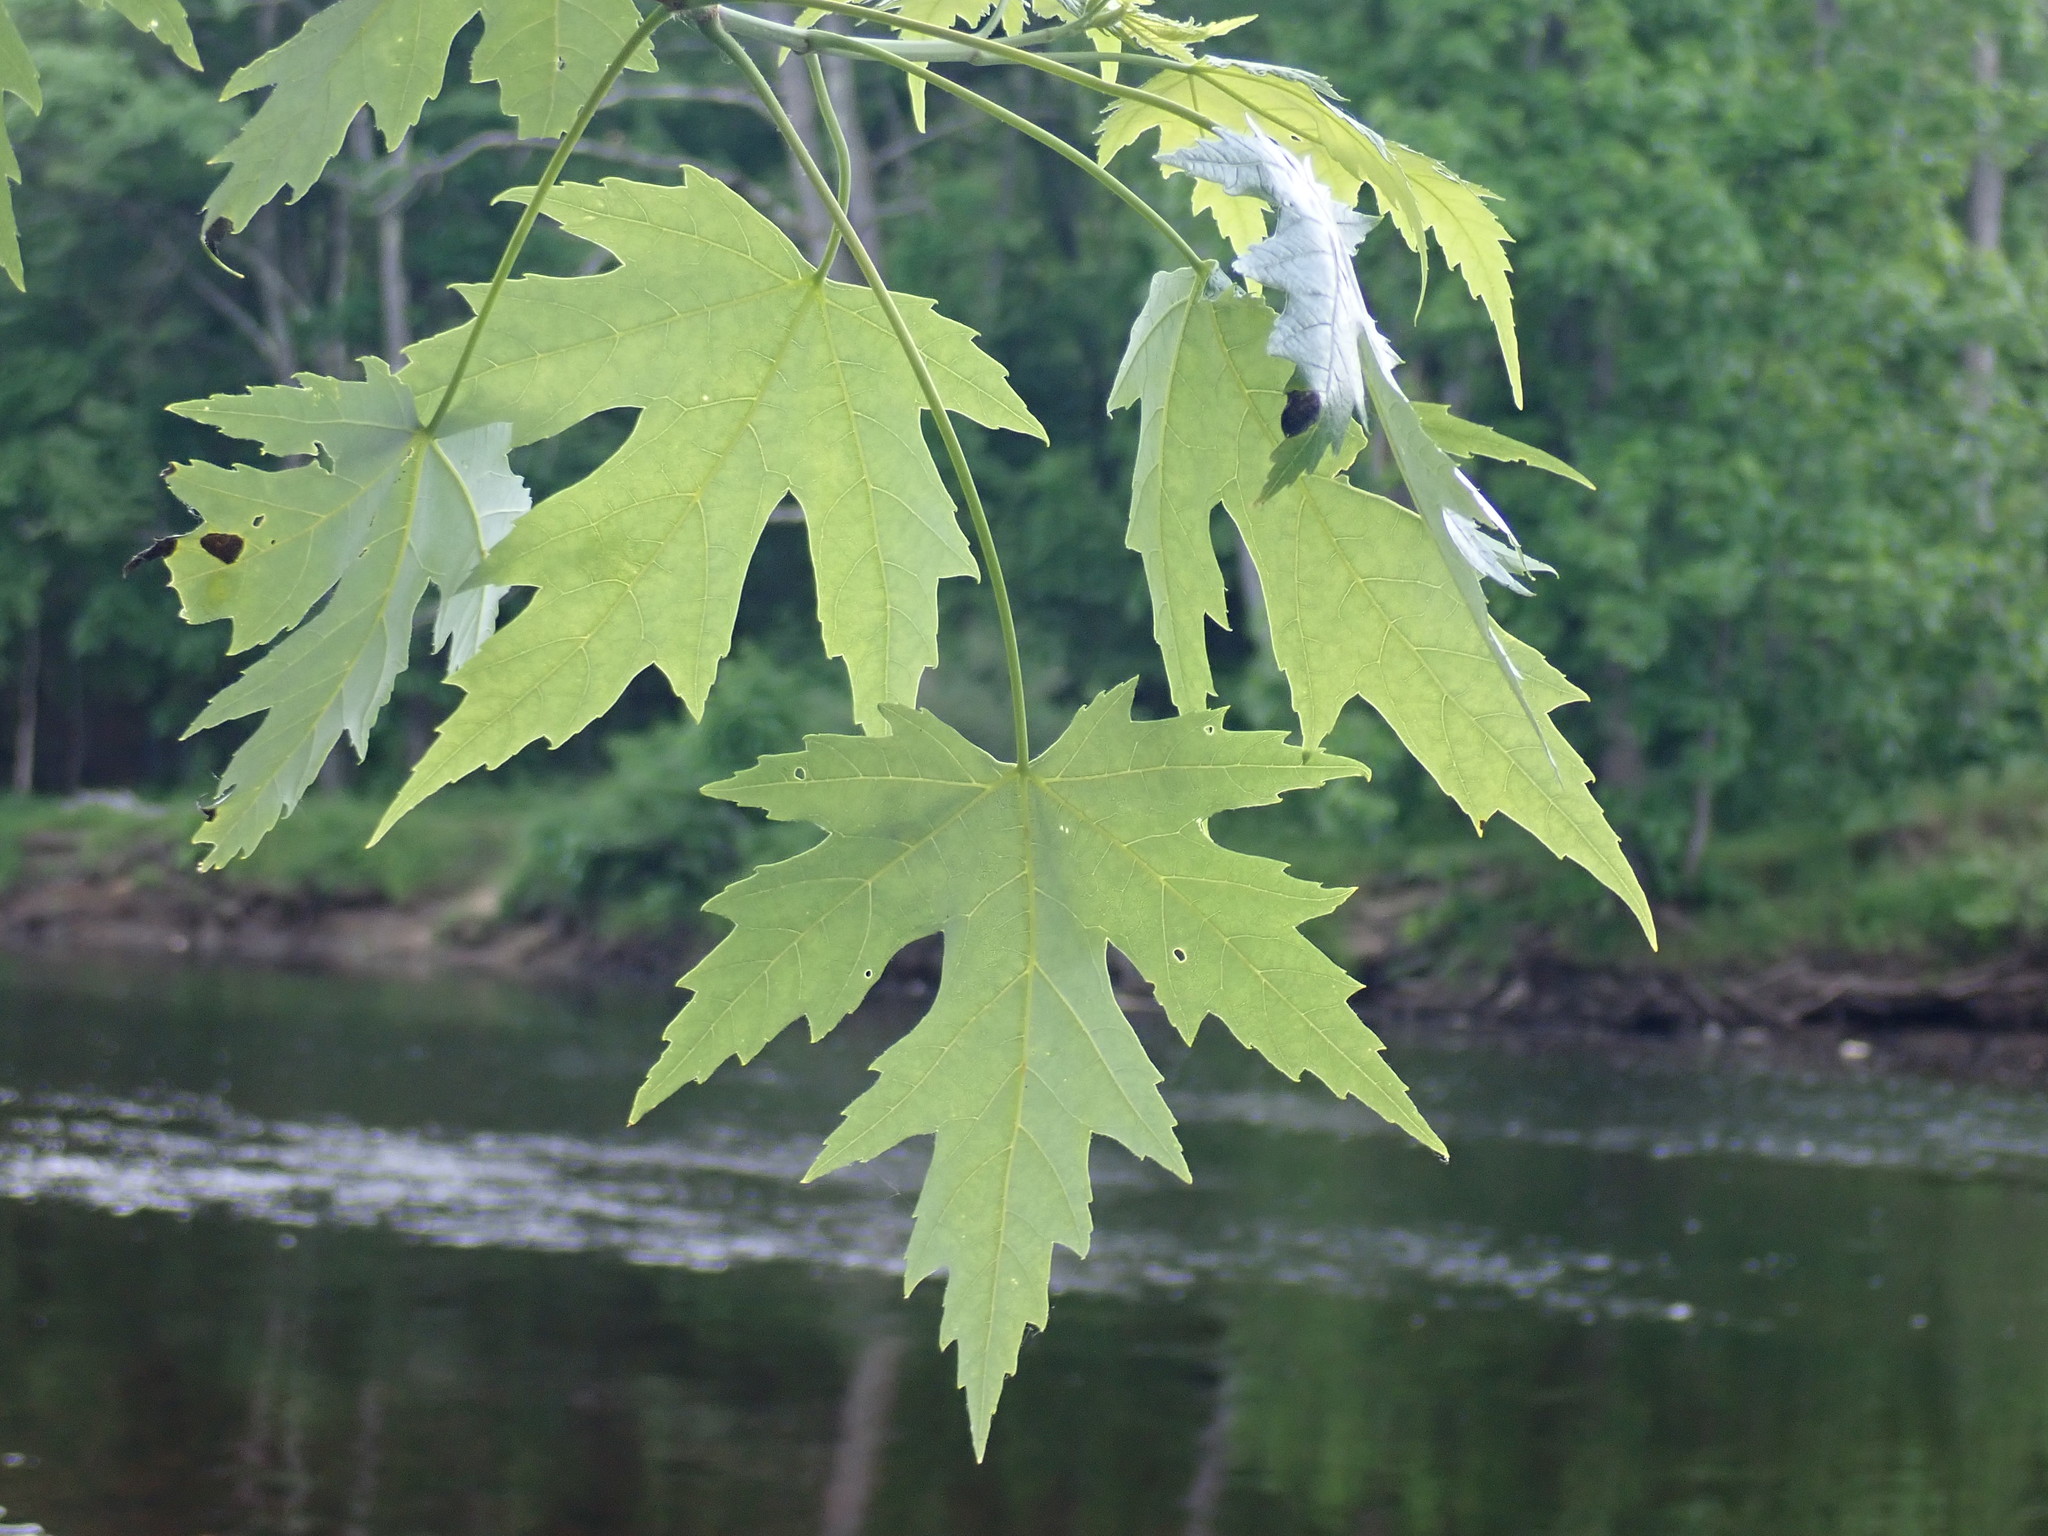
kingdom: Plantae
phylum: Tracheophyta
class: Magnoliopsida
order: Sapindales
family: Sapindaceae
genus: Acer
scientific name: Acer saccharinum
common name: Silver maple
